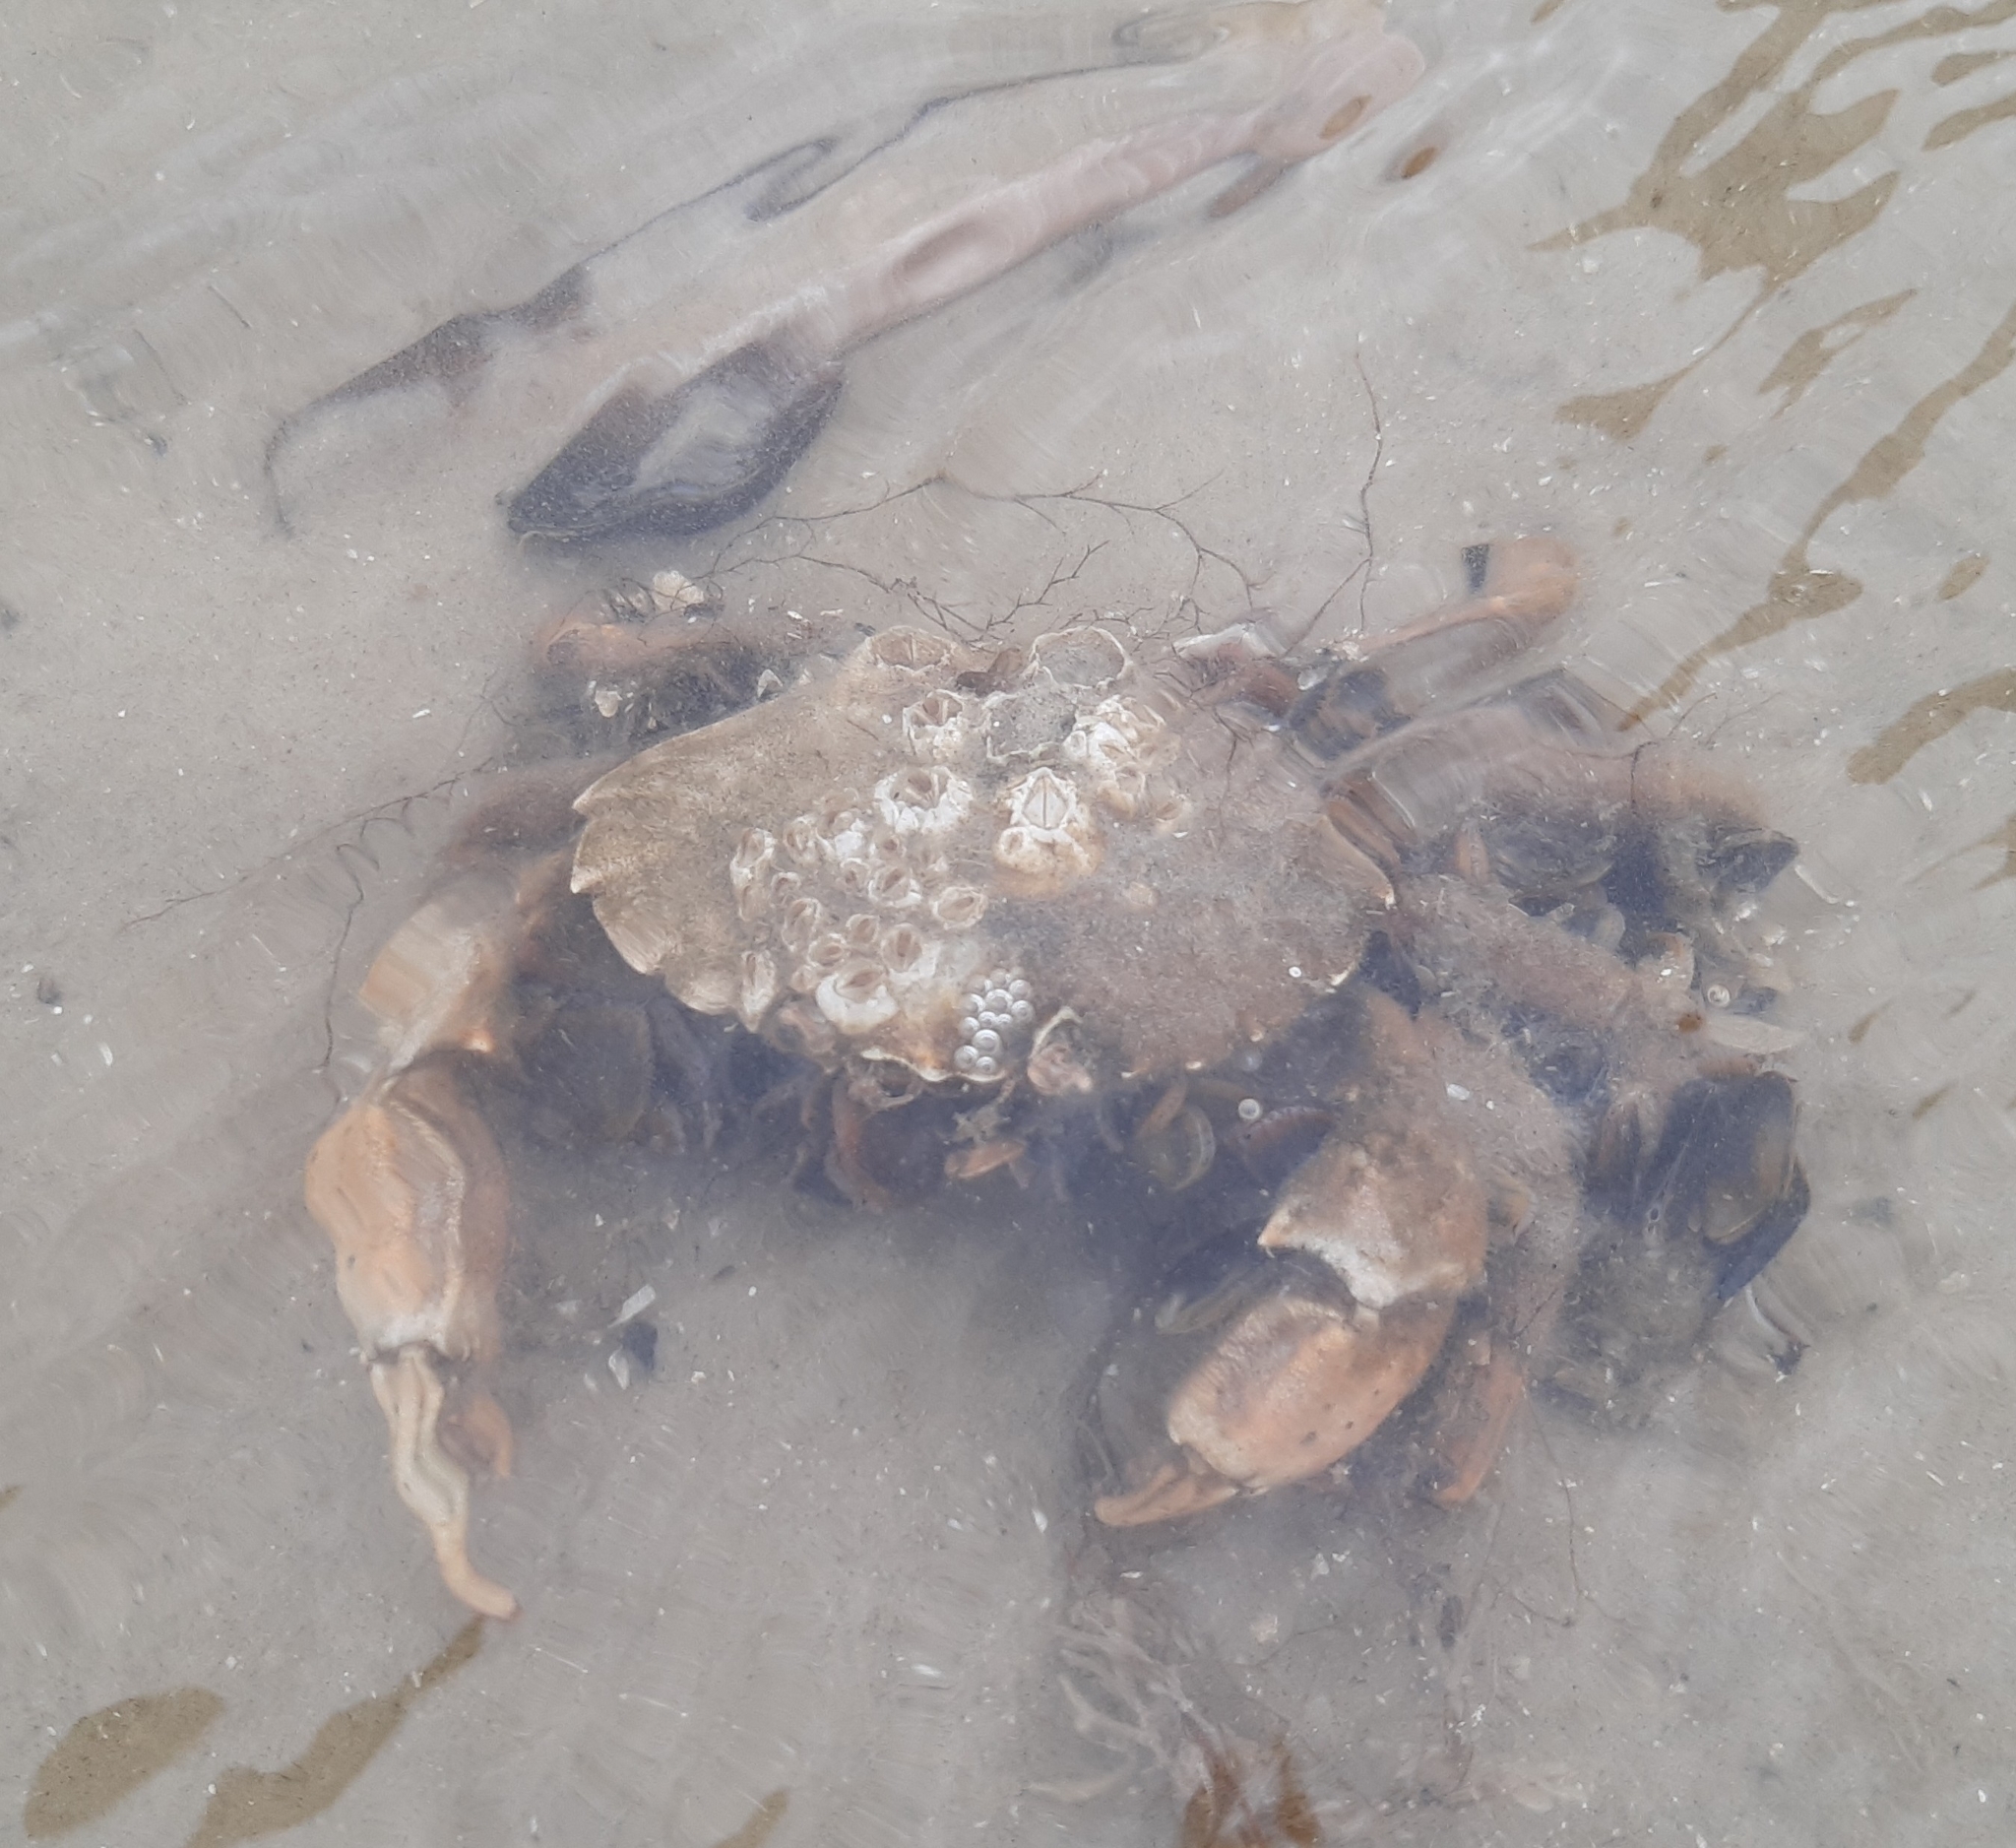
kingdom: Animalia
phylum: Arthropoda
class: Malacostraca
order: Decapoda
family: Carcinidae
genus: Carcinus
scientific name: Carcinus maenas
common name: European green crab
